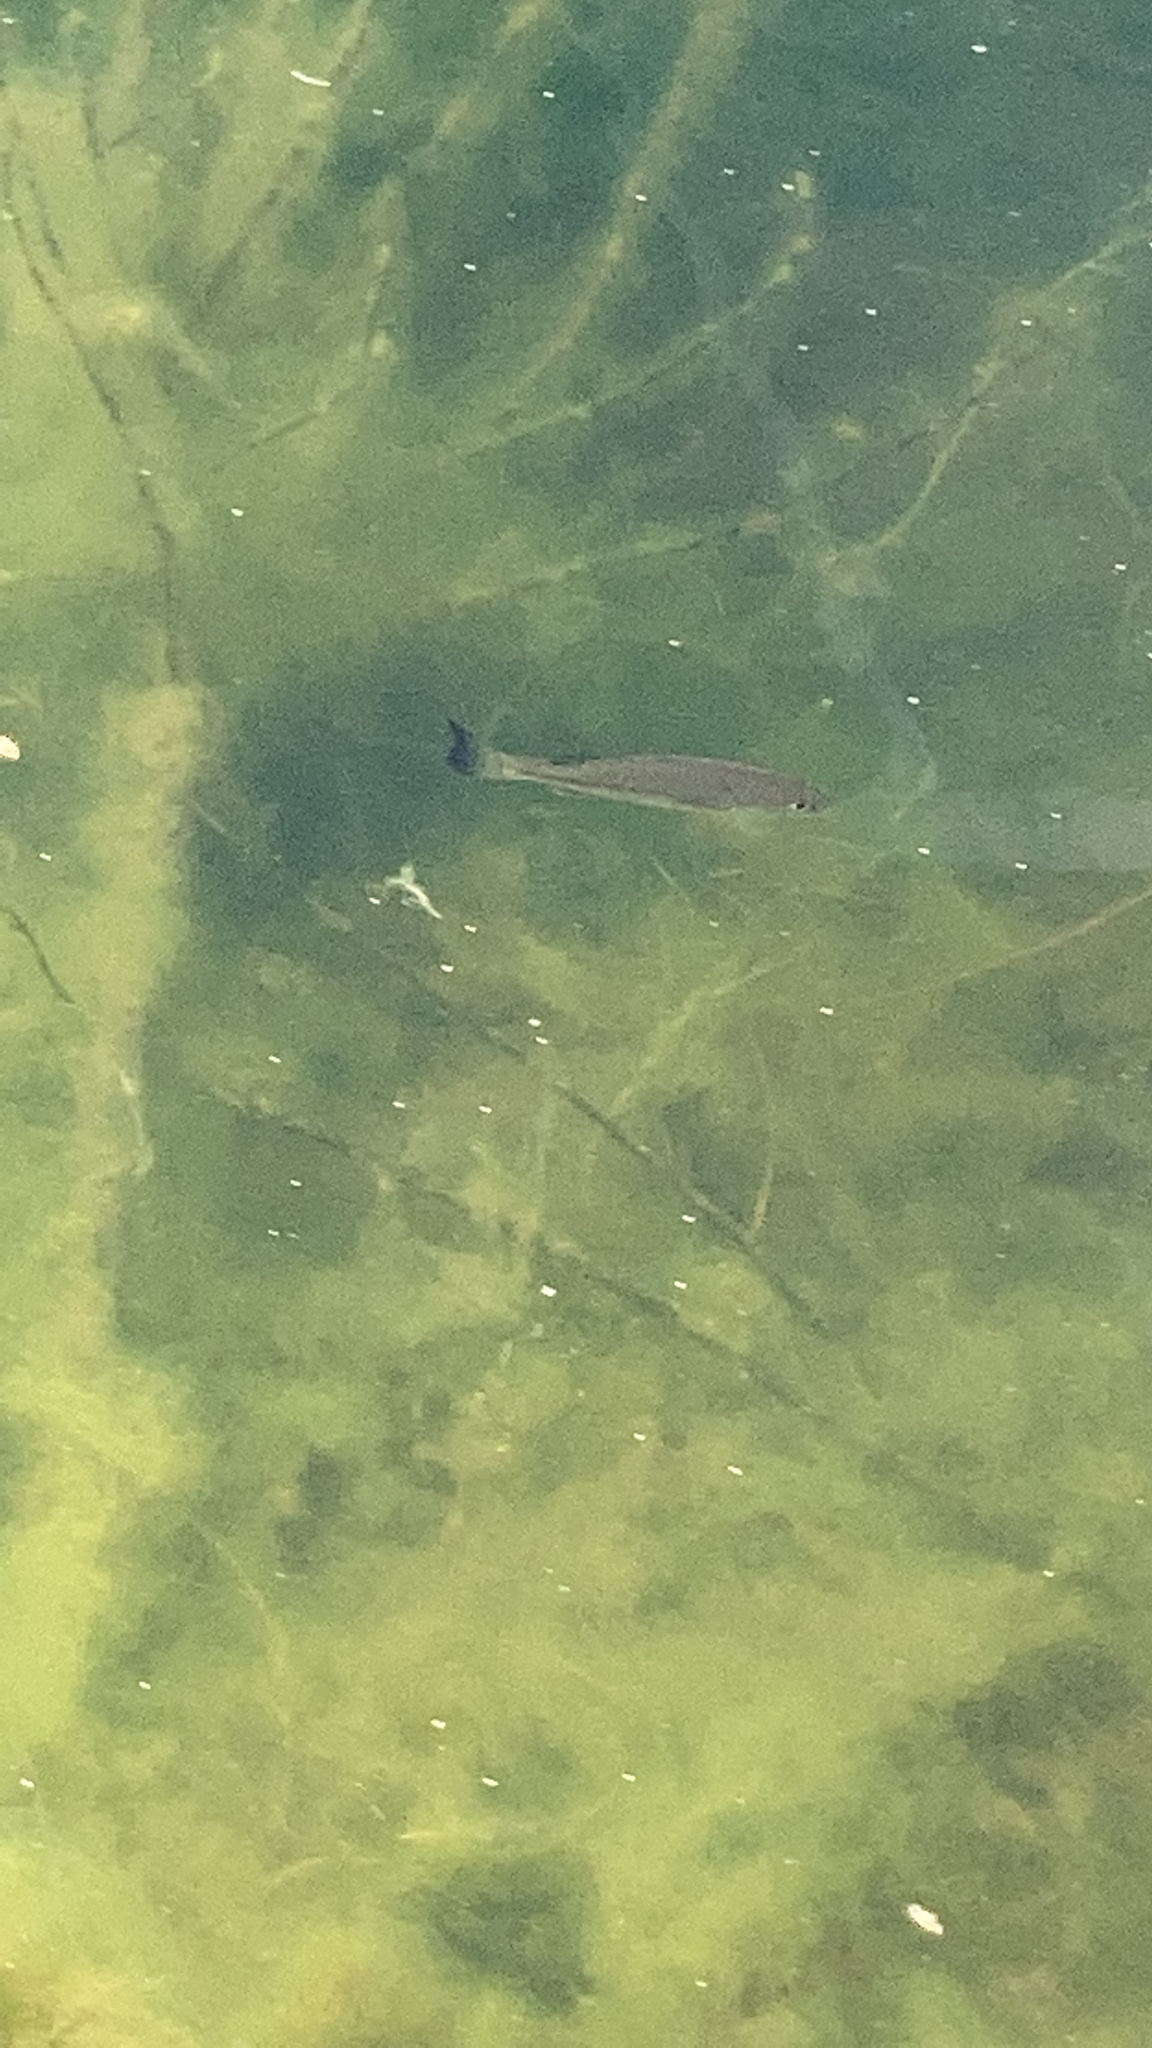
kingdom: Animalia
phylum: Chordata
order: Perciformes
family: Centrarchidae
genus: Micropterus
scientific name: Micropterus
